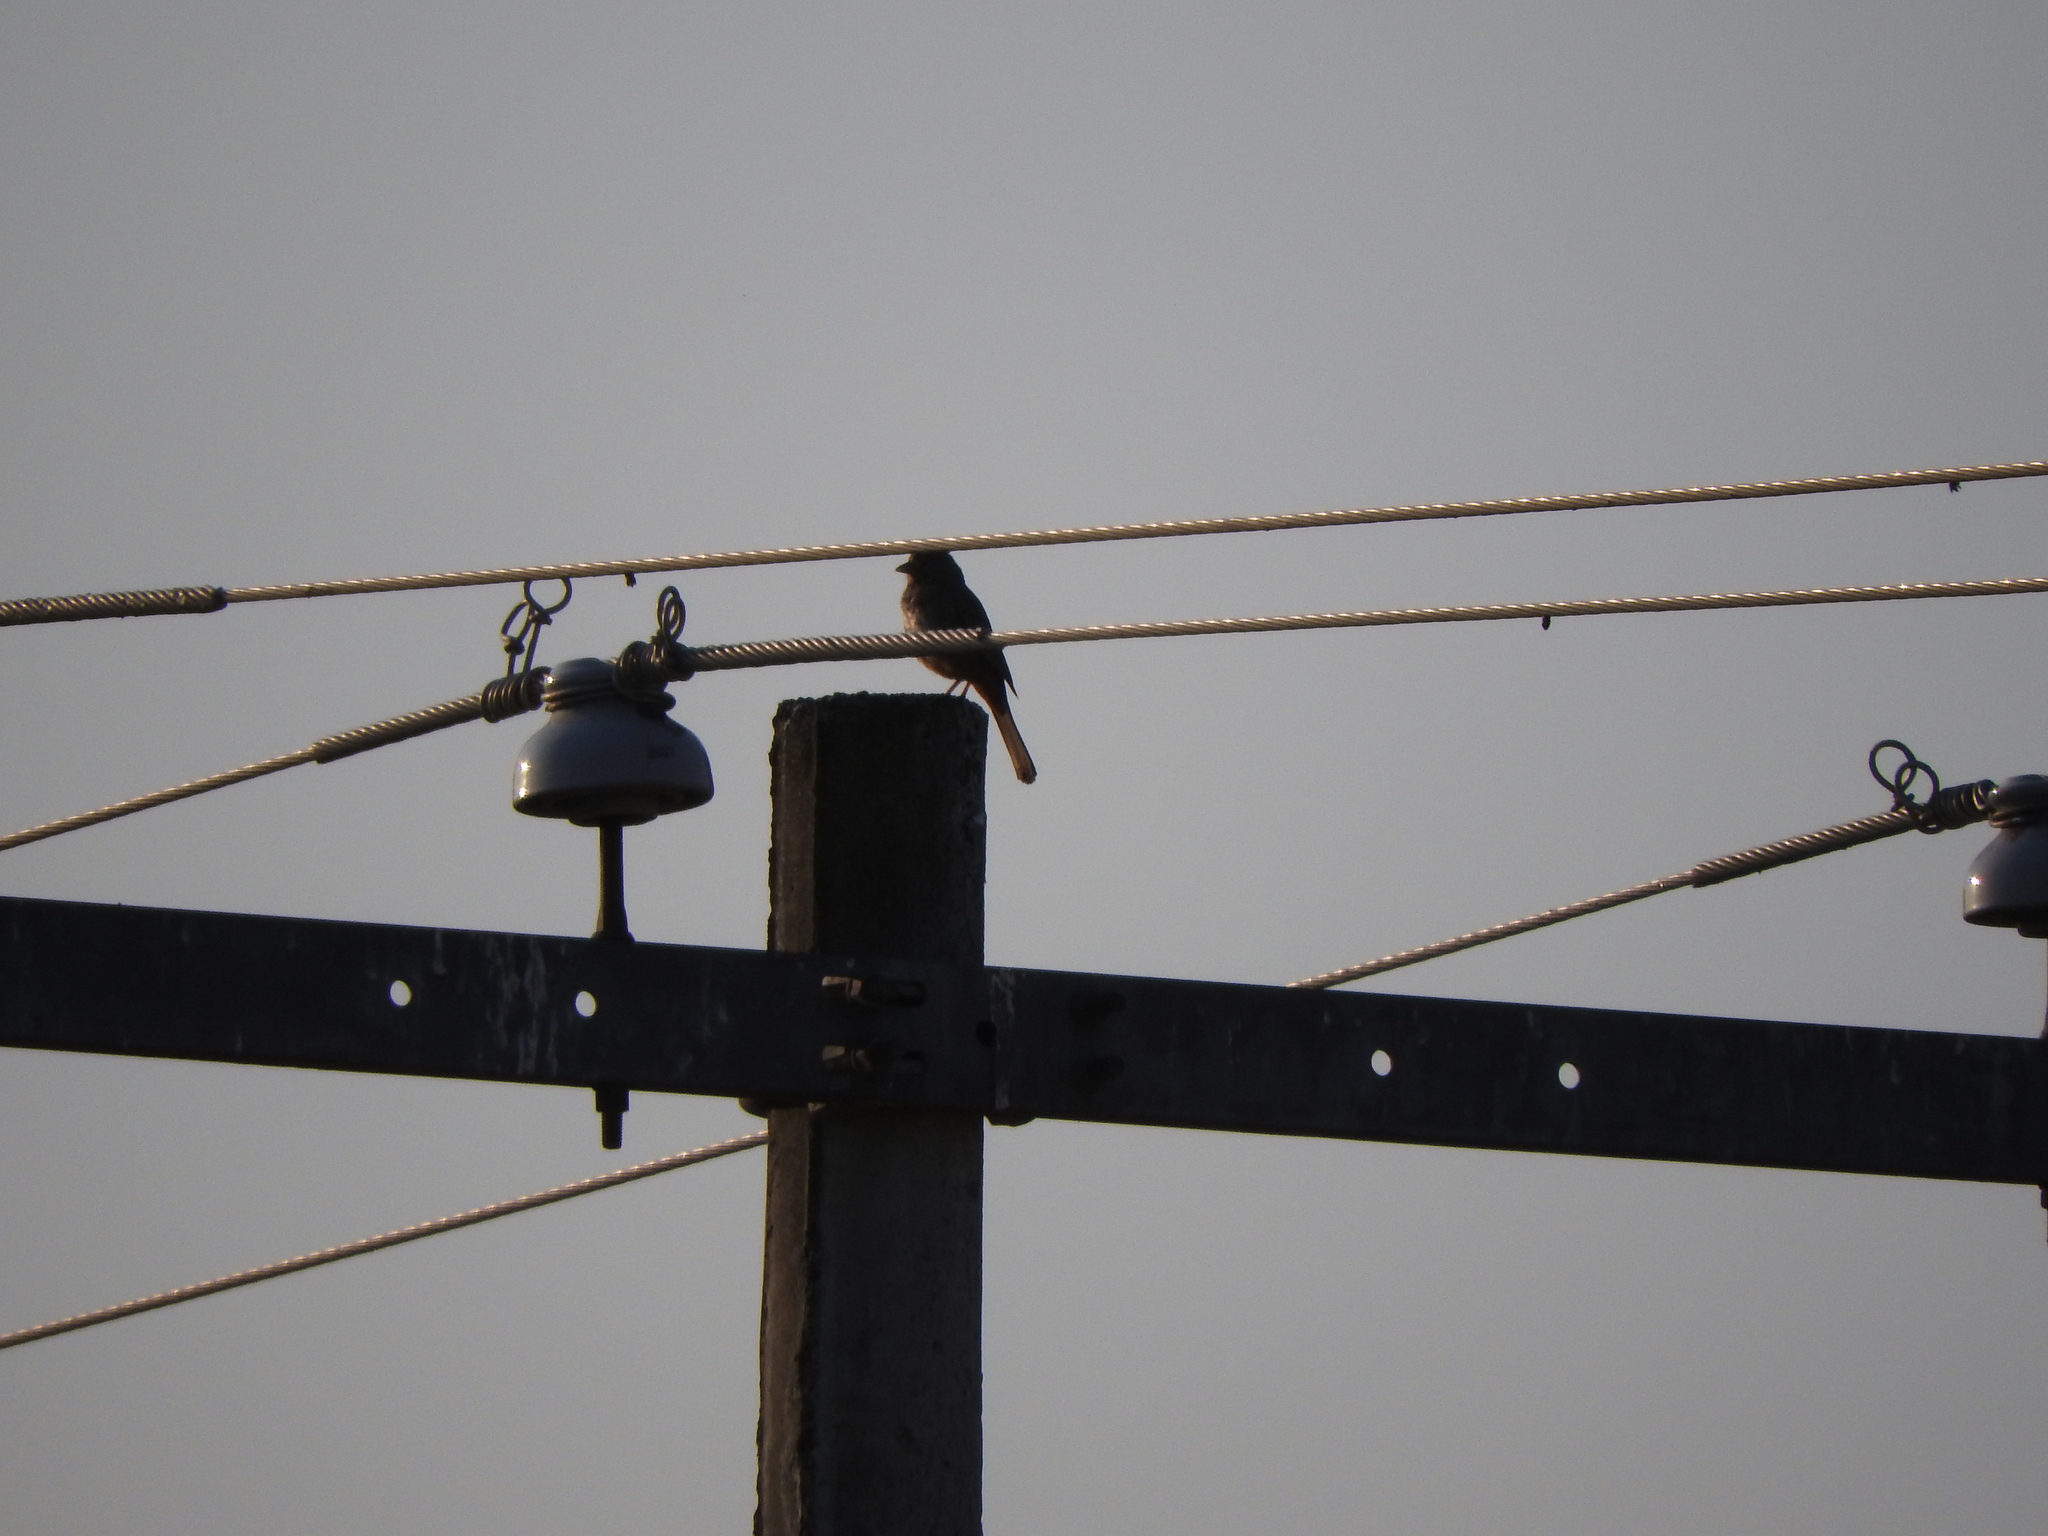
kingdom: Animalia
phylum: Chordata
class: Aves
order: Passeriformes
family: Passerellidae
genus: Melozone
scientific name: Melozone fusca
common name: Canyon towhee
